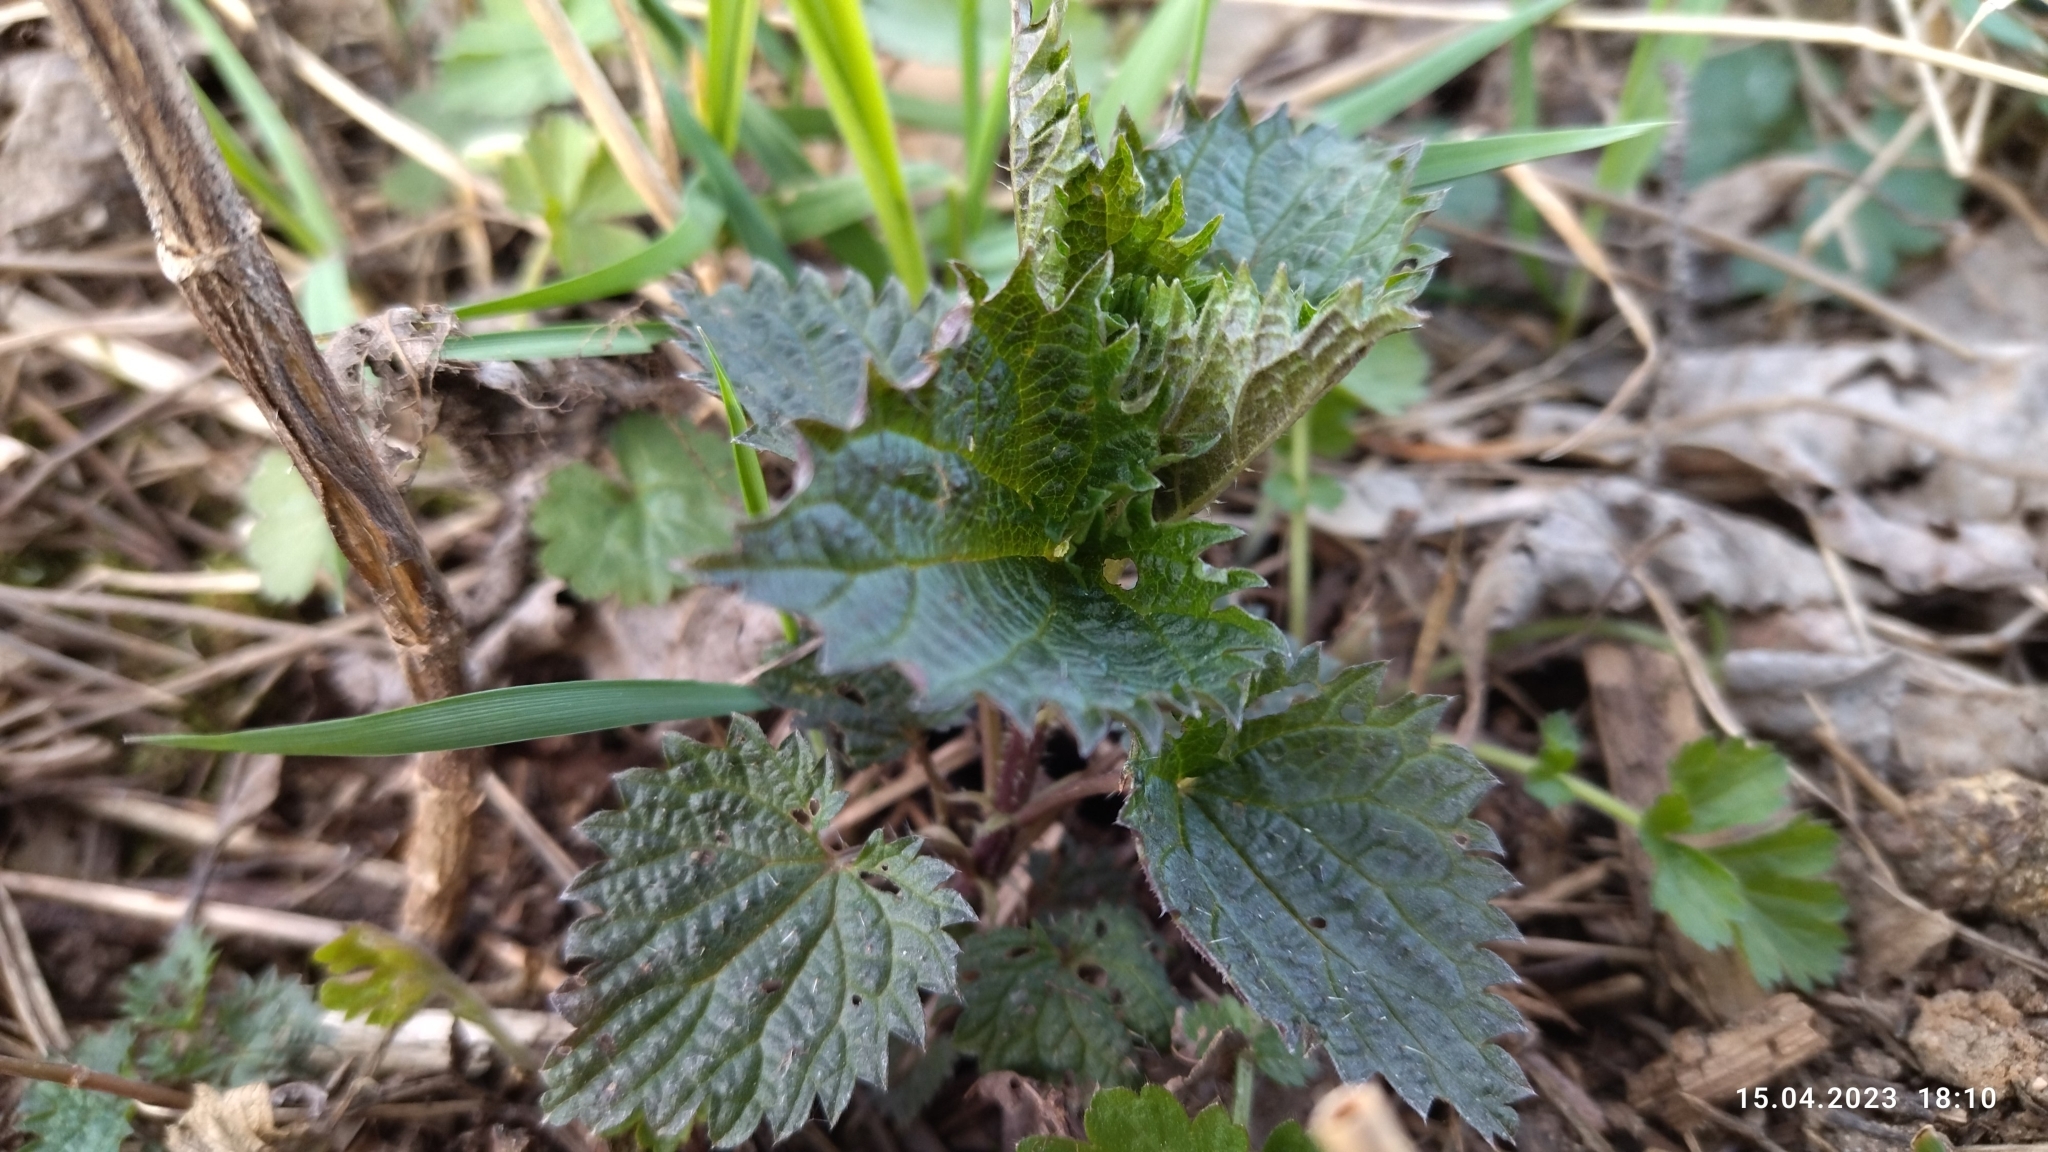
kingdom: Plantae
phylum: Tracheophyta
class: Magnoliopsida
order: Rosales
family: Urticaceae
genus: Urtica
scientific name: Urtica dioica
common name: Common nettle
